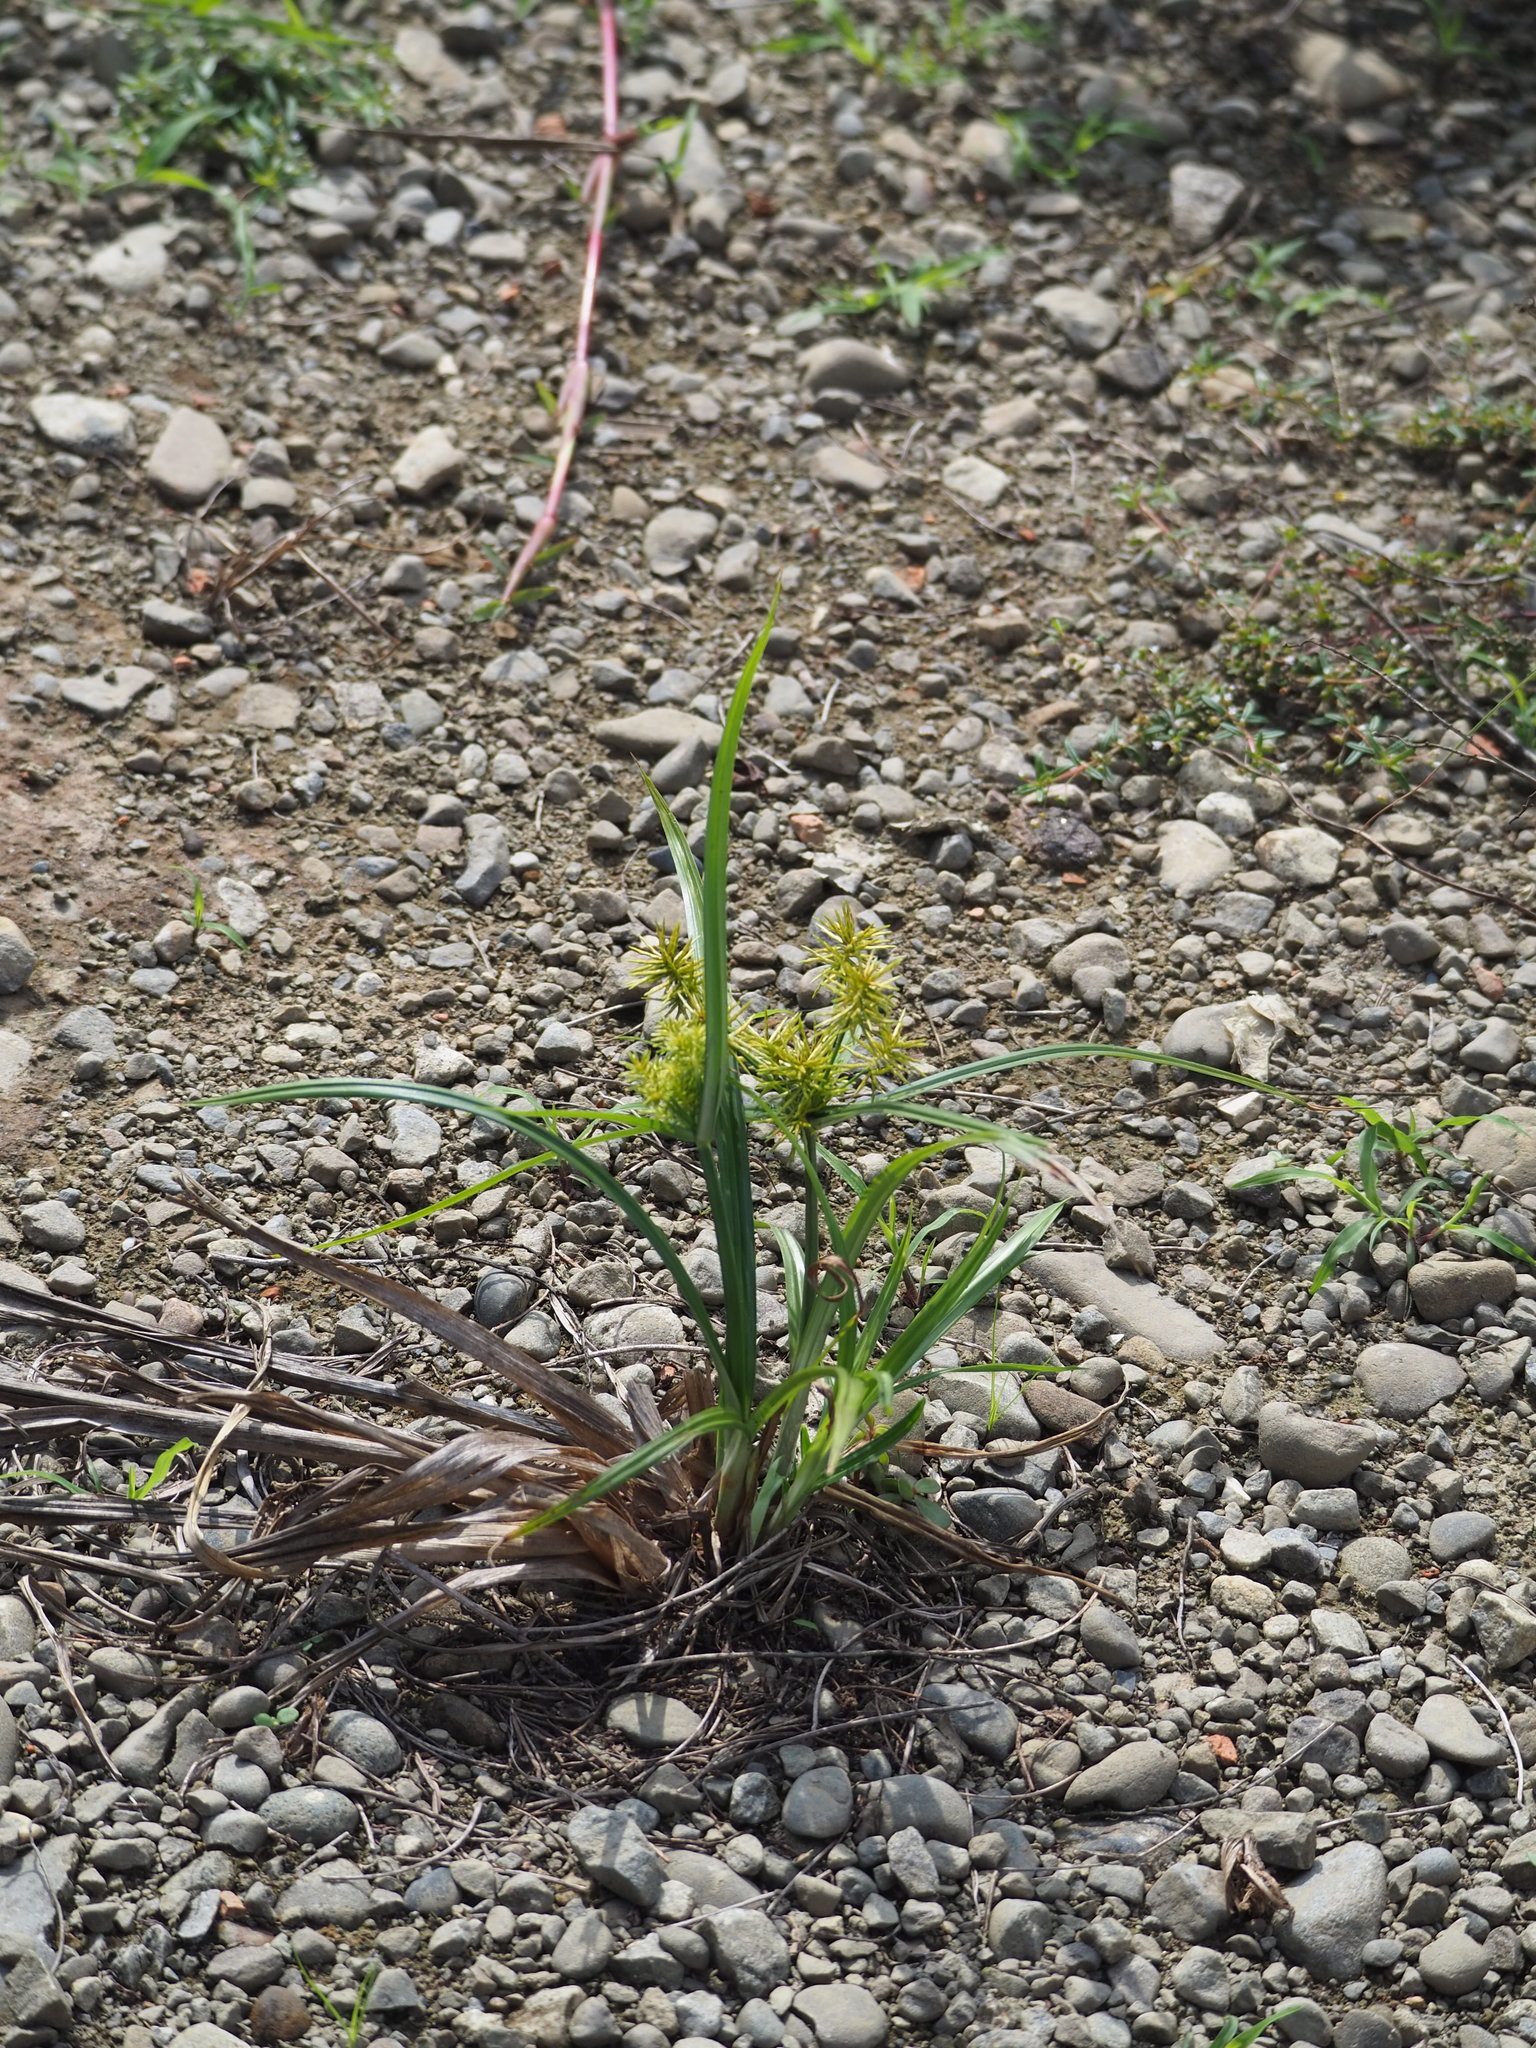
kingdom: Plantae
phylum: Tracheophyta
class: Liliopsida
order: Poales
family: Cyperaceae
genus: Cyperus
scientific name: Cyperus odoratus
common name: Fragrant flatsedge
